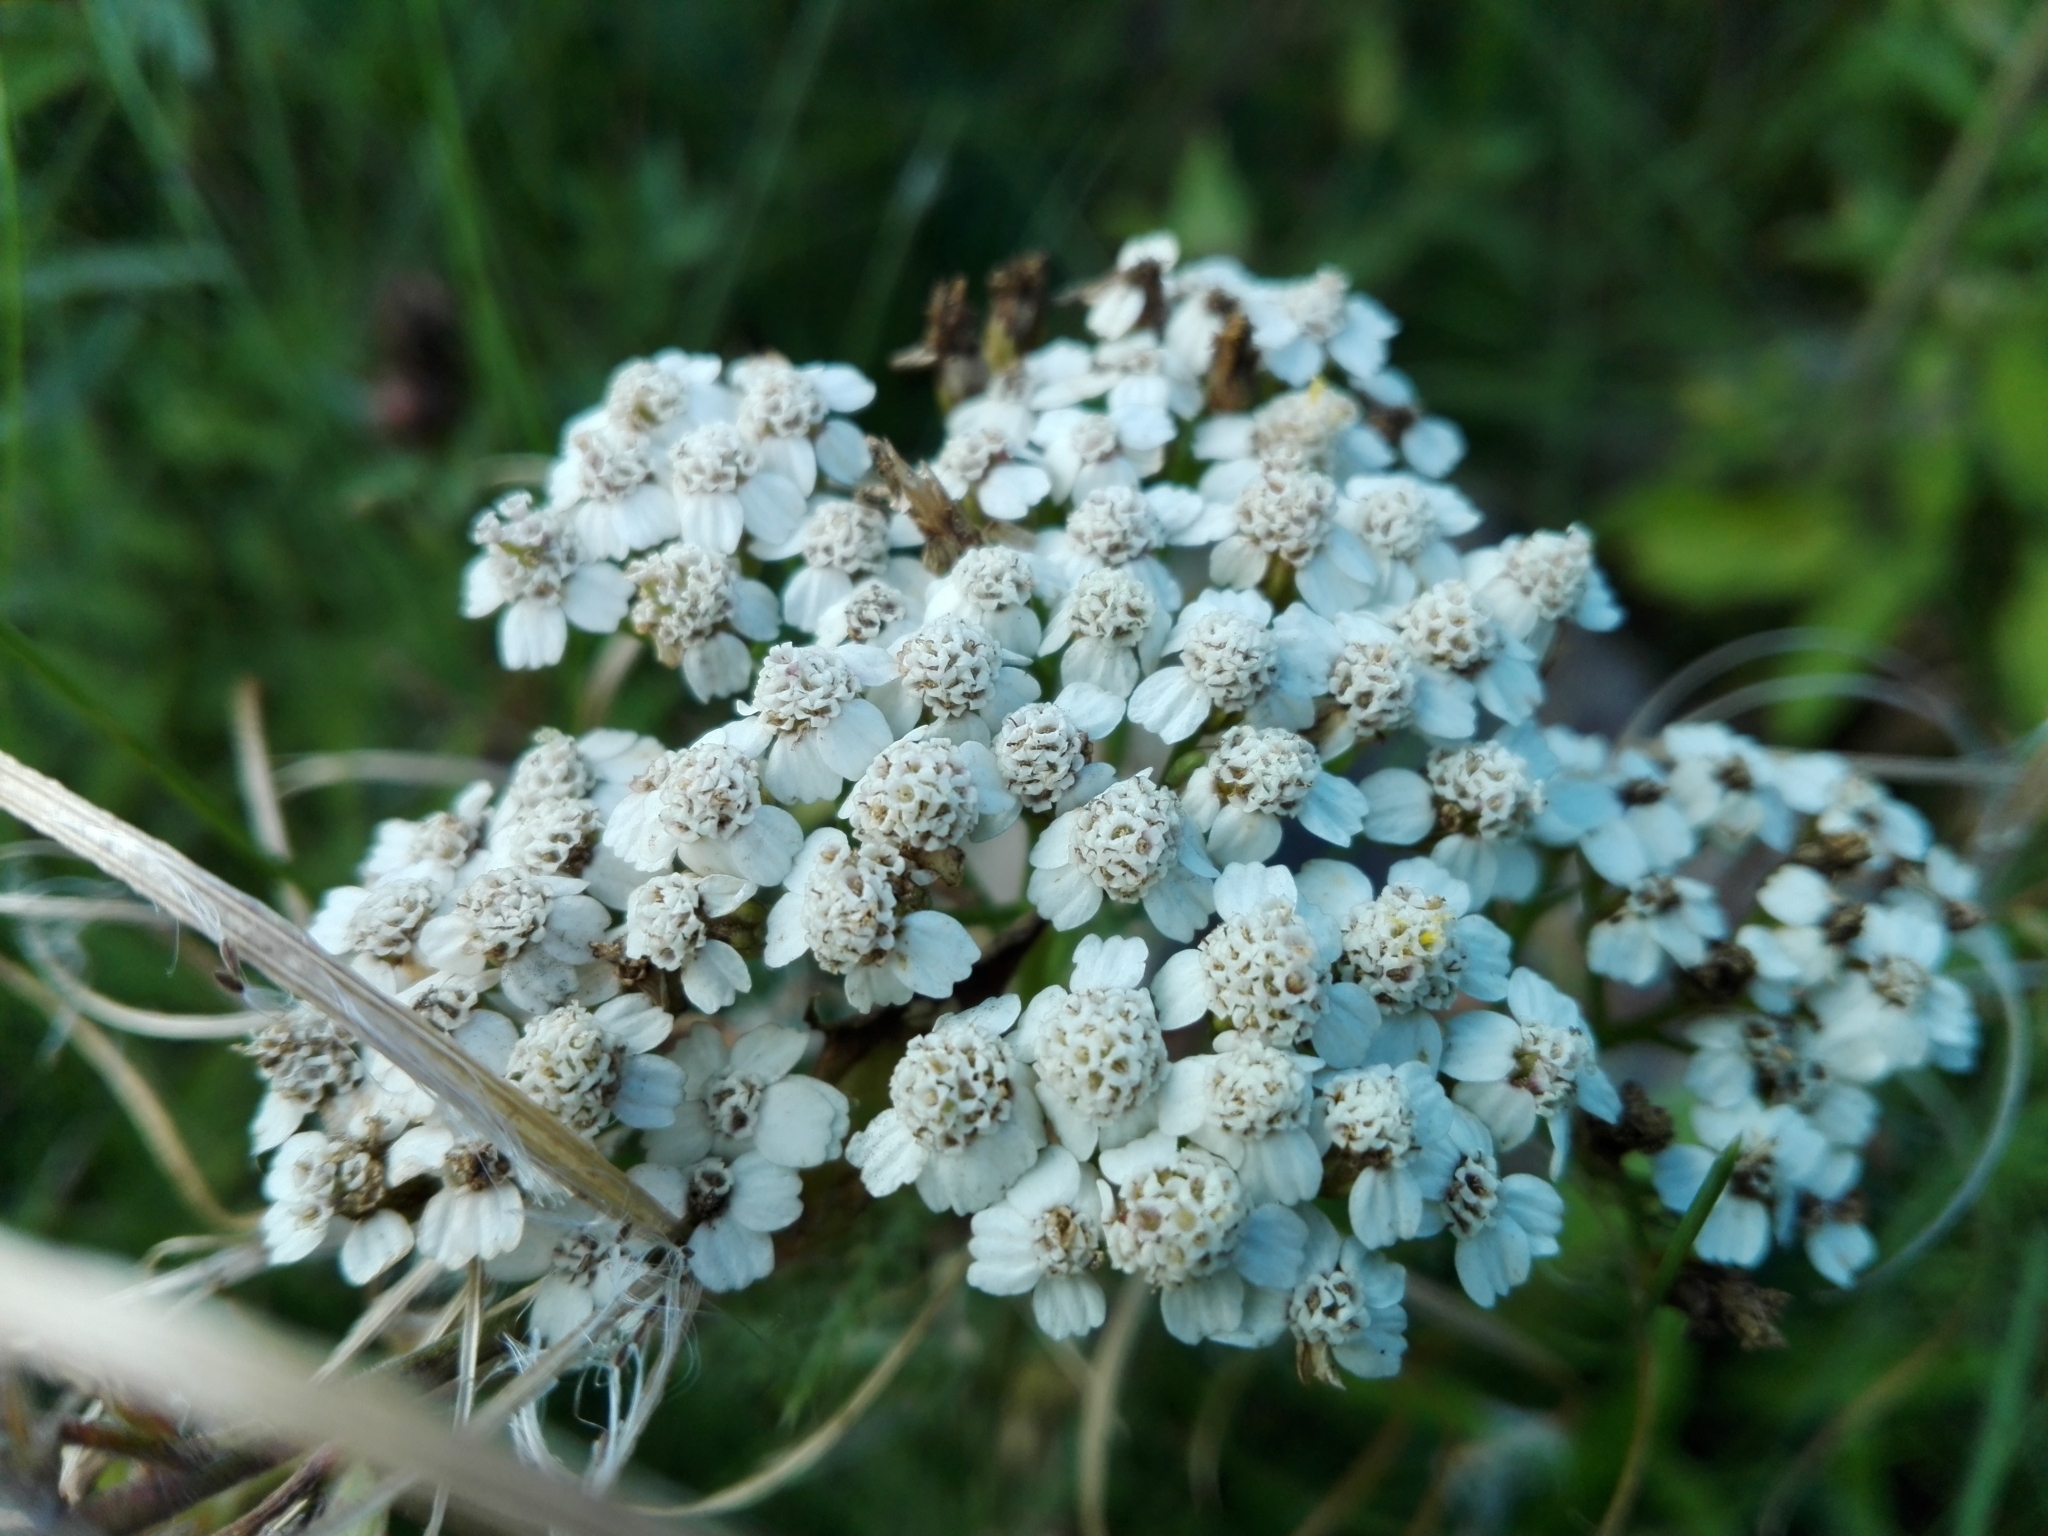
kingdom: Plantae
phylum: Tracheophyta
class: Magnoliopsida
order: Asterales
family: Asteraceae
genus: Achillea
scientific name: Achillea millefolium
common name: Yarrow
